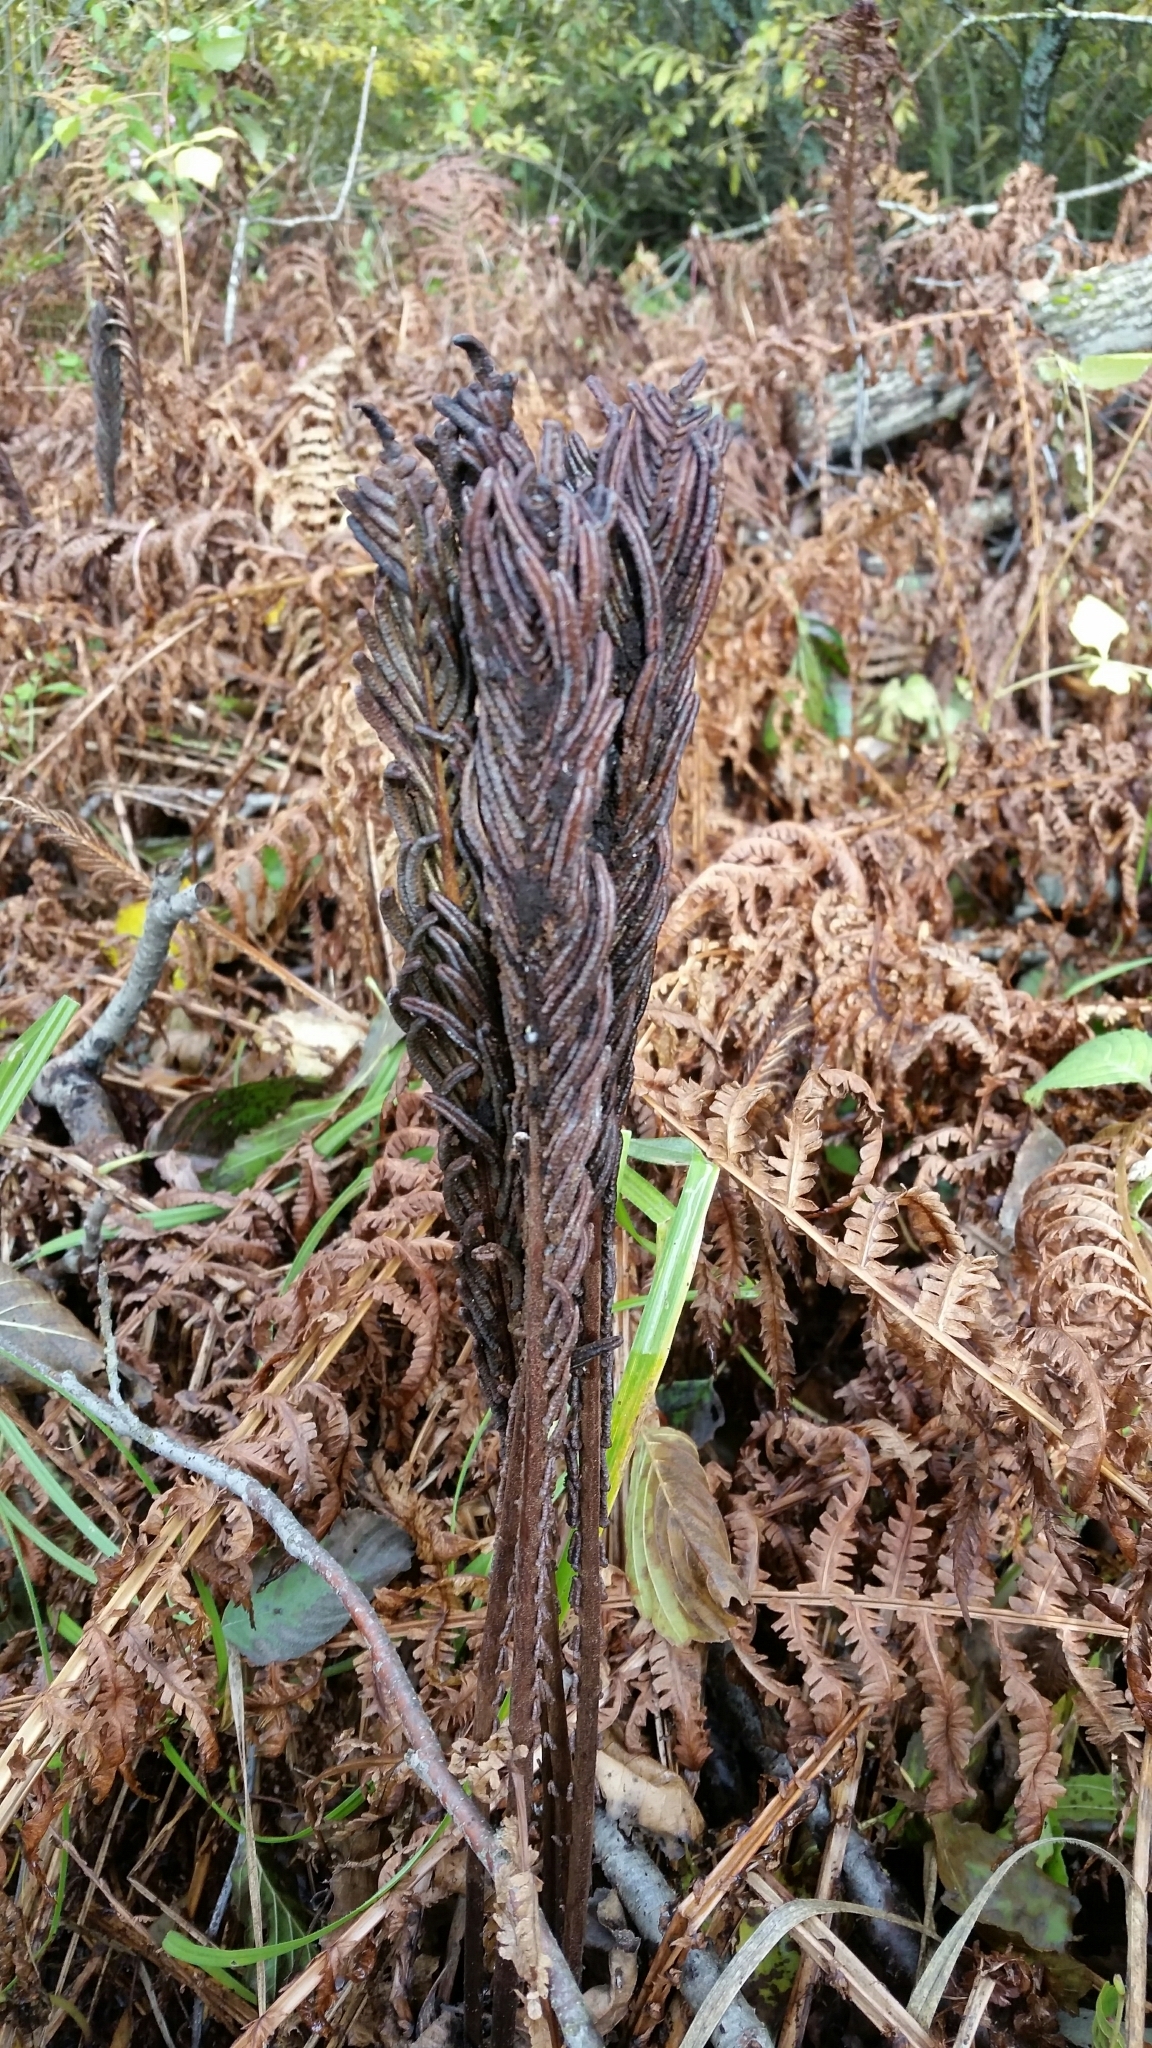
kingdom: Plantae
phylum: Tracheophyta
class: Polypodiopsida
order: Polypodiales
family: Onocleaceae
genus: Matteuccia
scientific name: Matteuccia struthiopteris
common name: Ostrich fern
